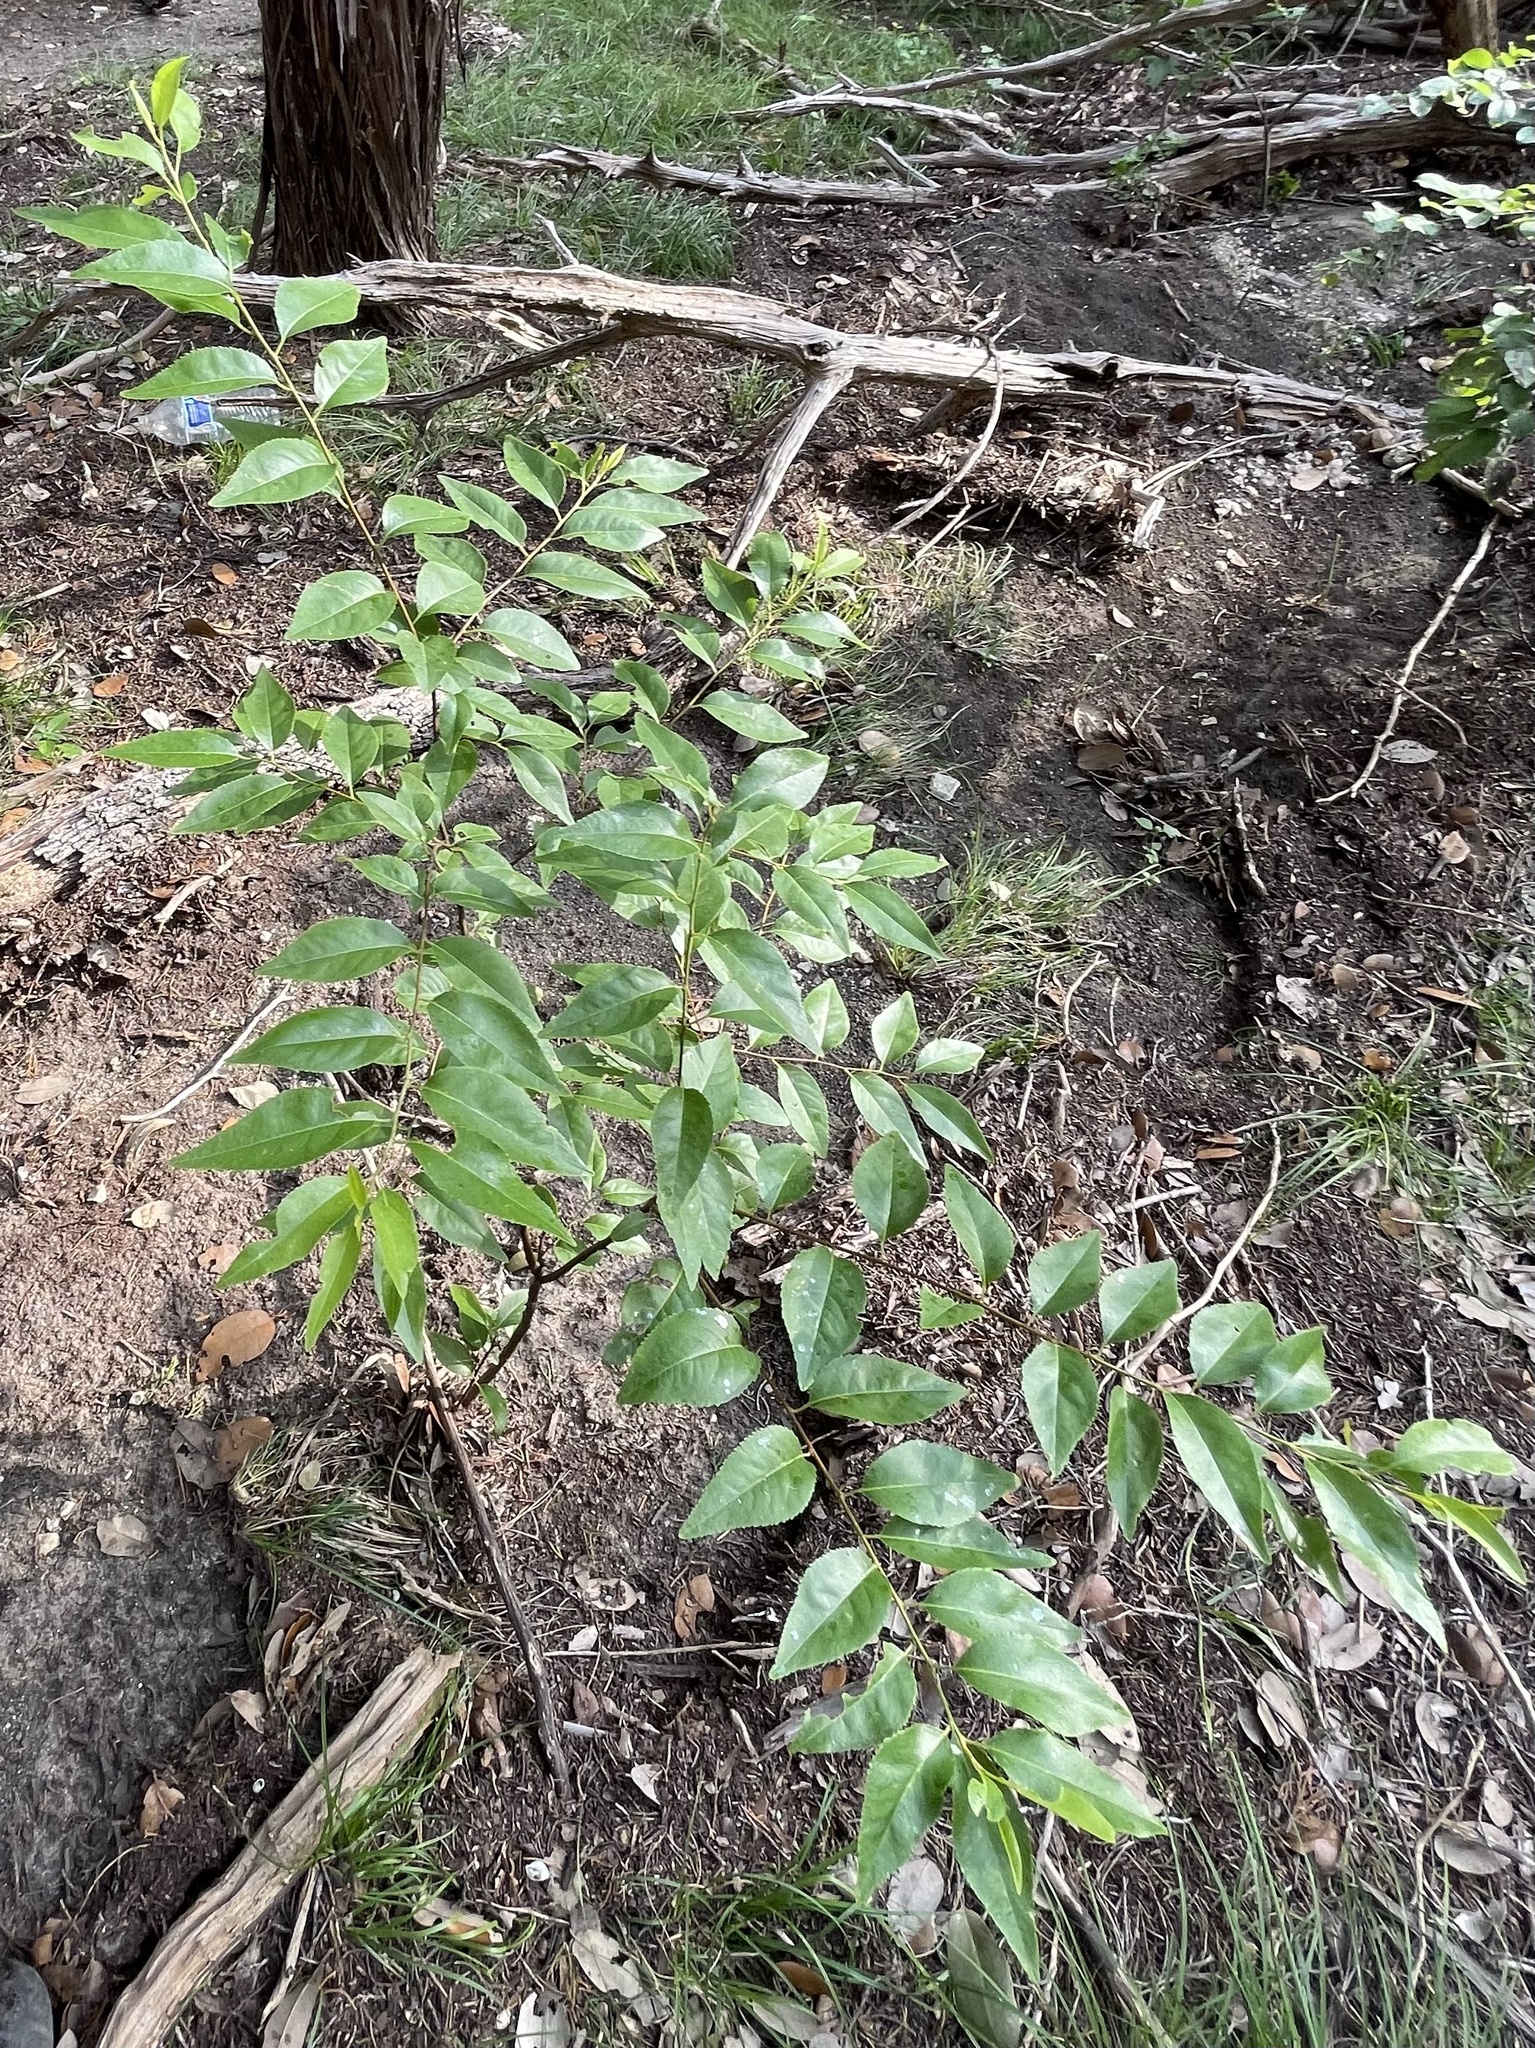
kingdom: Plantae
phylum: Tracheophyta
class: Magnoliopsida
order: Rosales
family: Rosaceae
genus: Prunus
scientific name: Prunus serotina
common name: Black cherry
